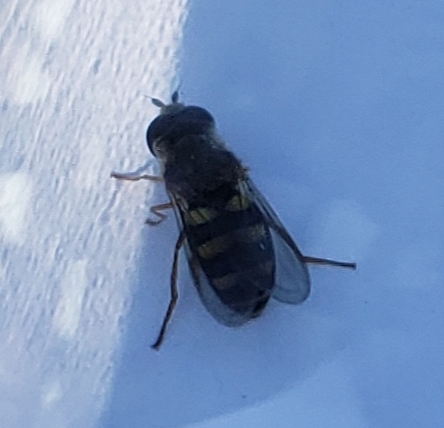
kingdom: Animalia
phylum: Arthropoda
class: Insecta
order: Diptera
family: Syrphidae
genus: Eupeodes
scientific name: Eupeodes fumipennis
